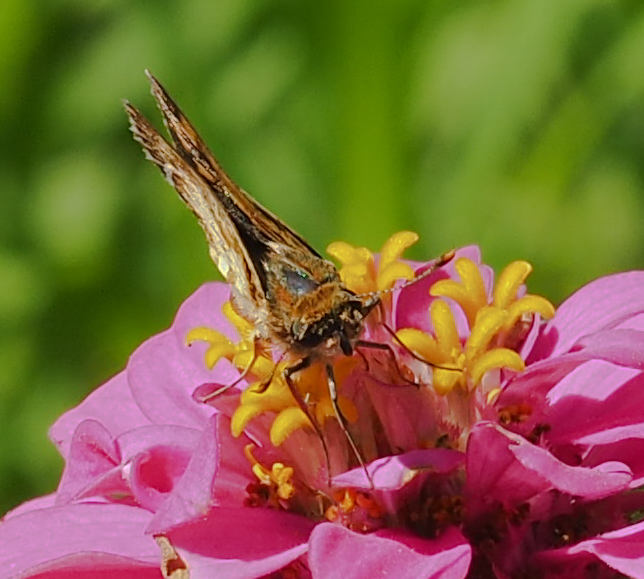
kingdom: Animalia
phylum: Arthropoda
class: Insecta
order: Lepidoptera
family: Hesperiidae
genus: Polites
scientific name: Polites coras
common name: Peck's skipper
